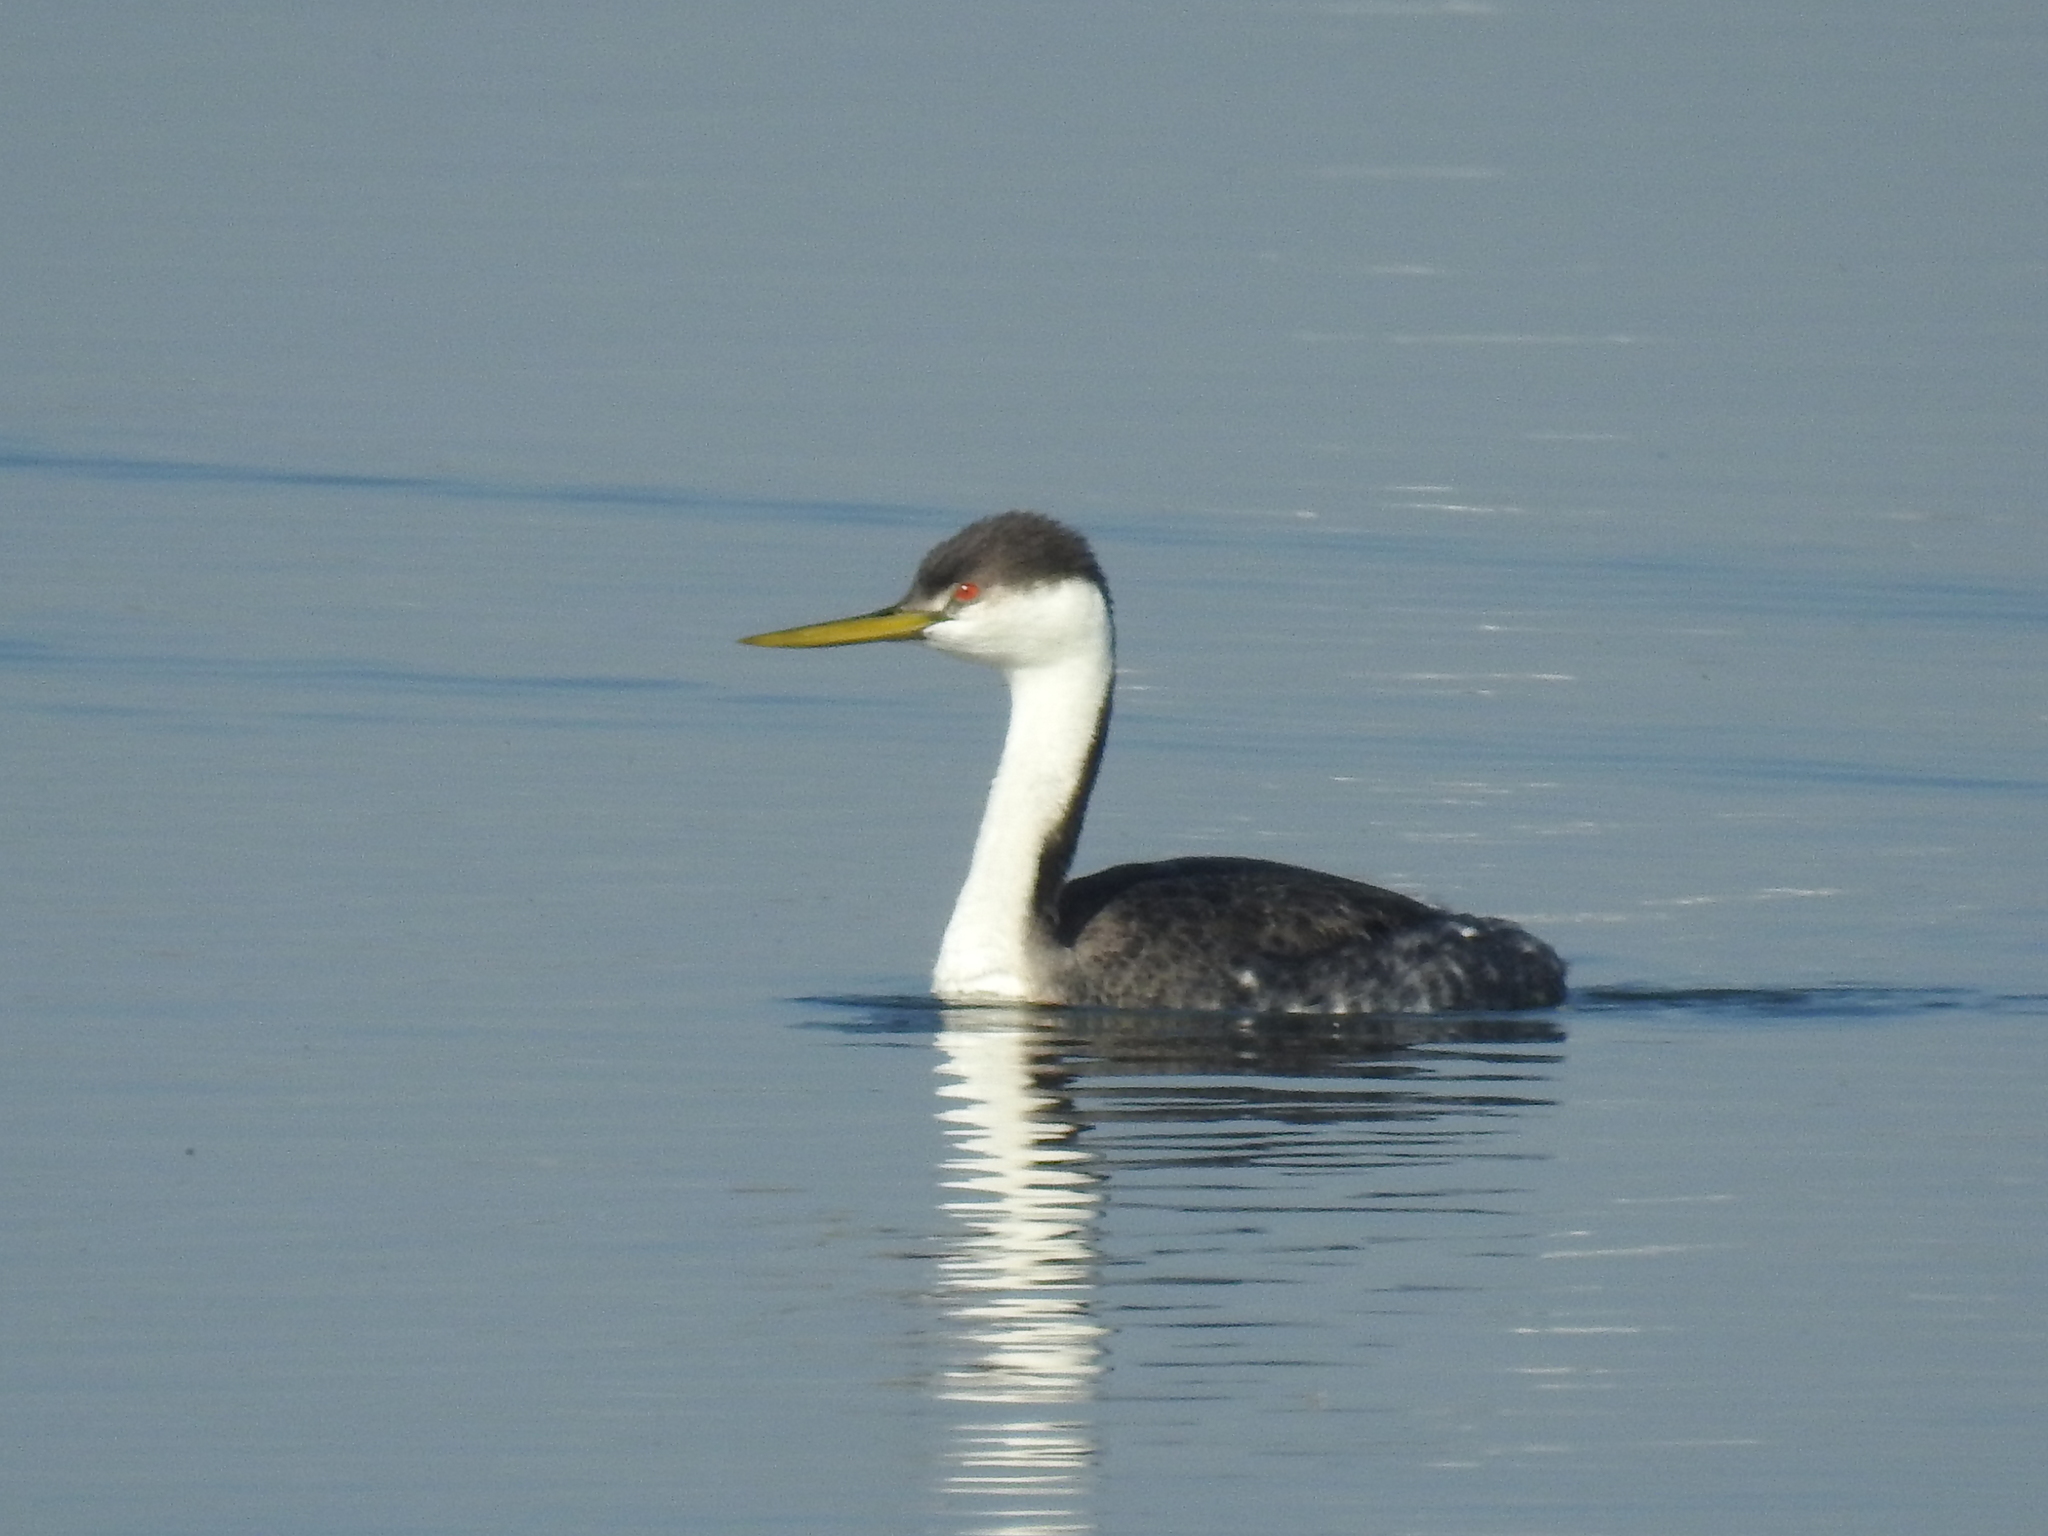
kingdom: Animalia
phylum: Chordata
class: Aves
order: Podicipediformes
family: Podicipedidae
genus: Aechmophorus
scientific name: Aechmophorus occidentalis
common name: Western grebe
